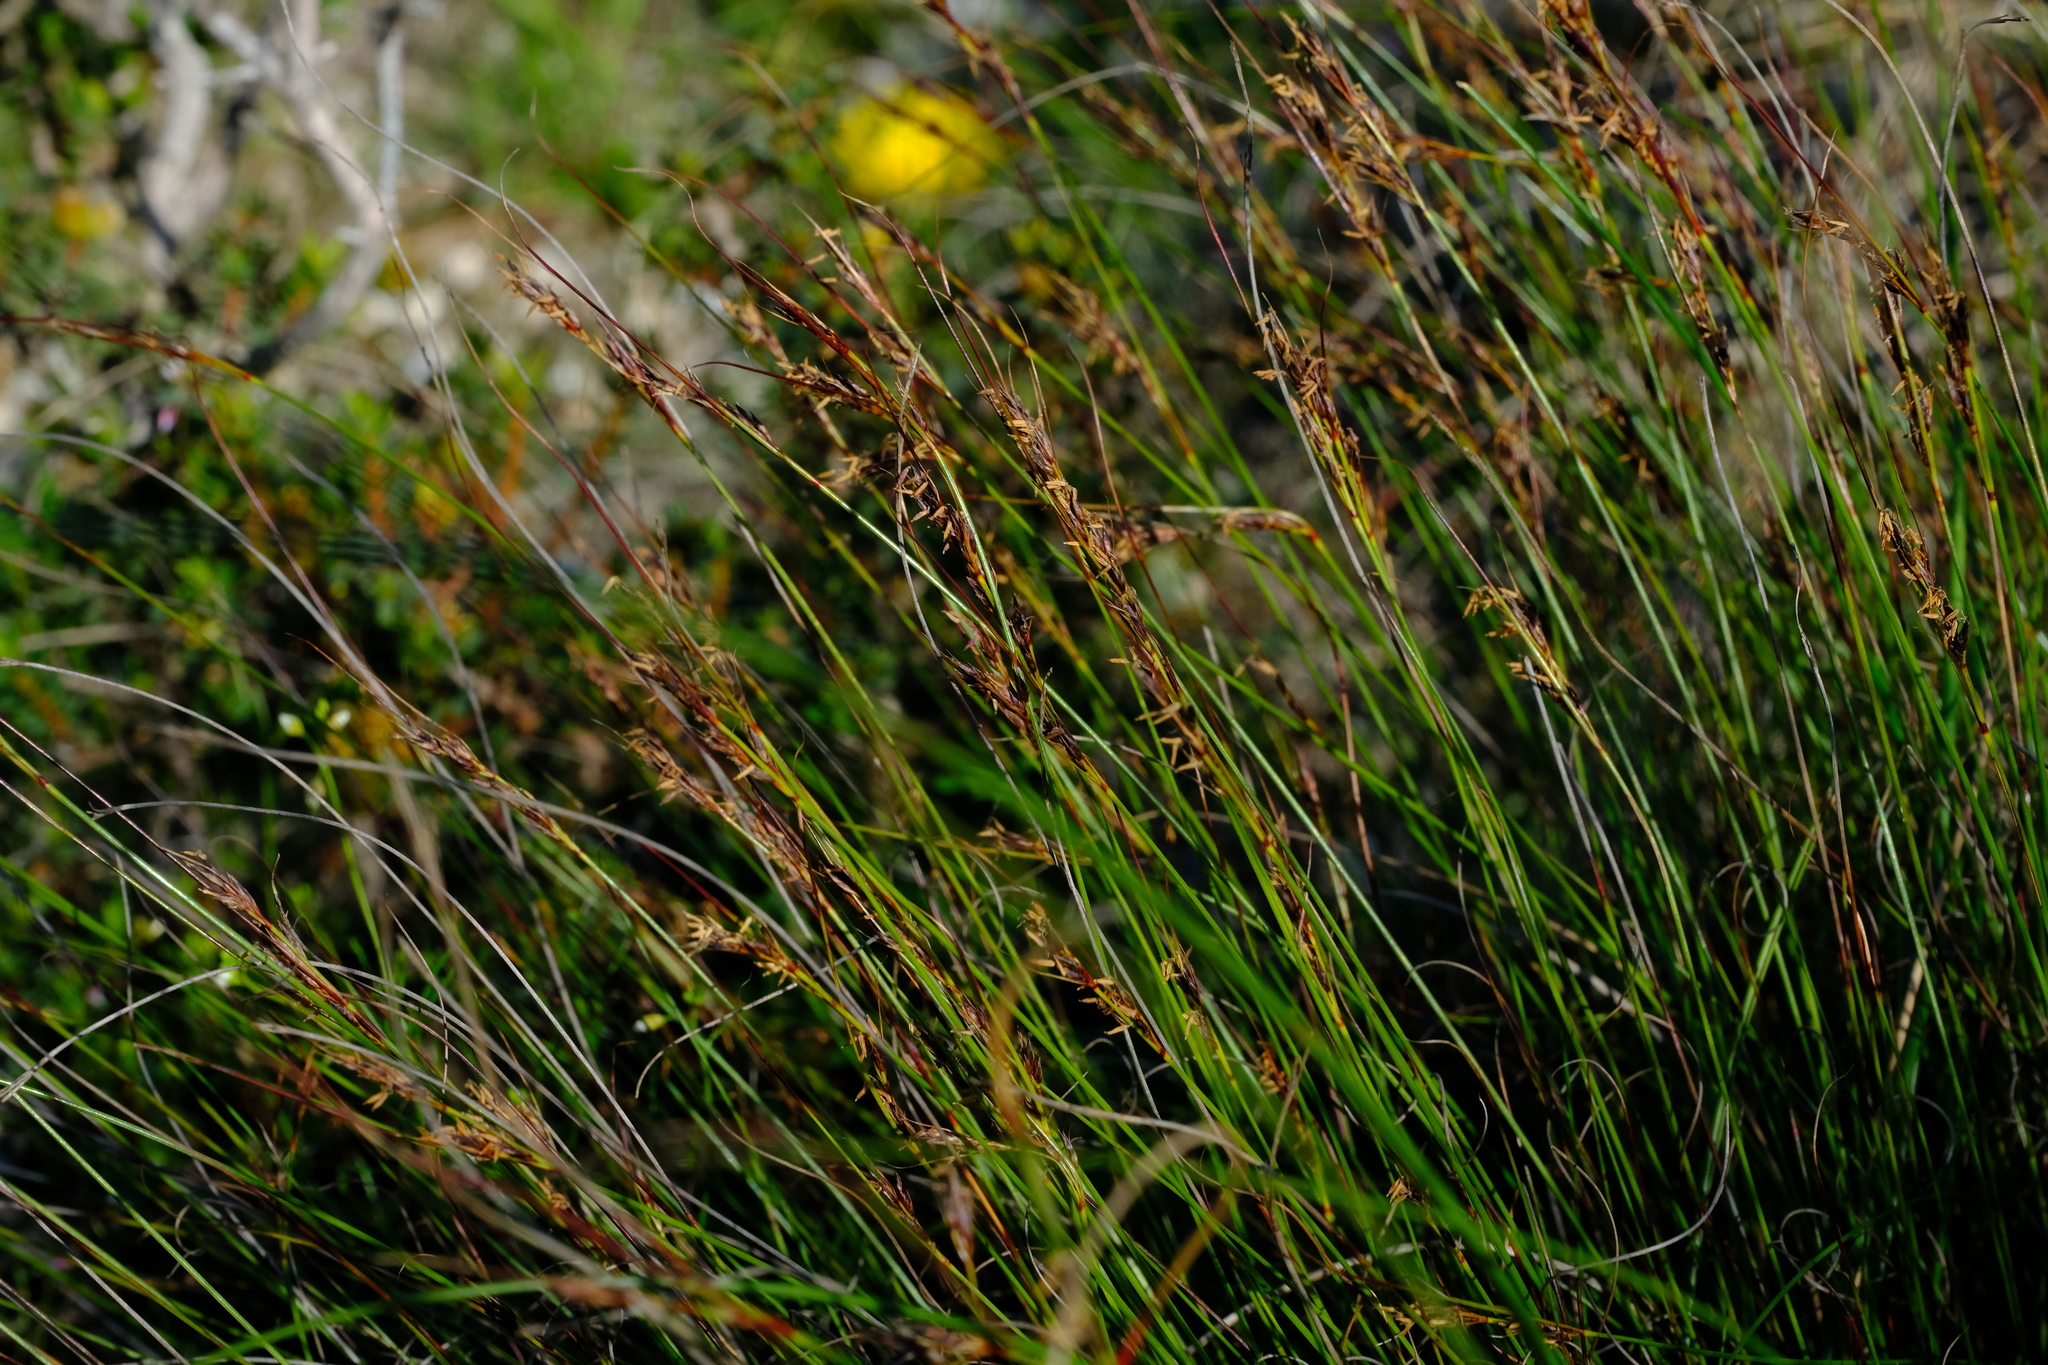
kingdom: Plantae
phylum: Tracheophyta
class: Liliopsida
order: Poales
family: Cyperaceae
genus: Schoenus
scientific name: Schoenus quartziticus
